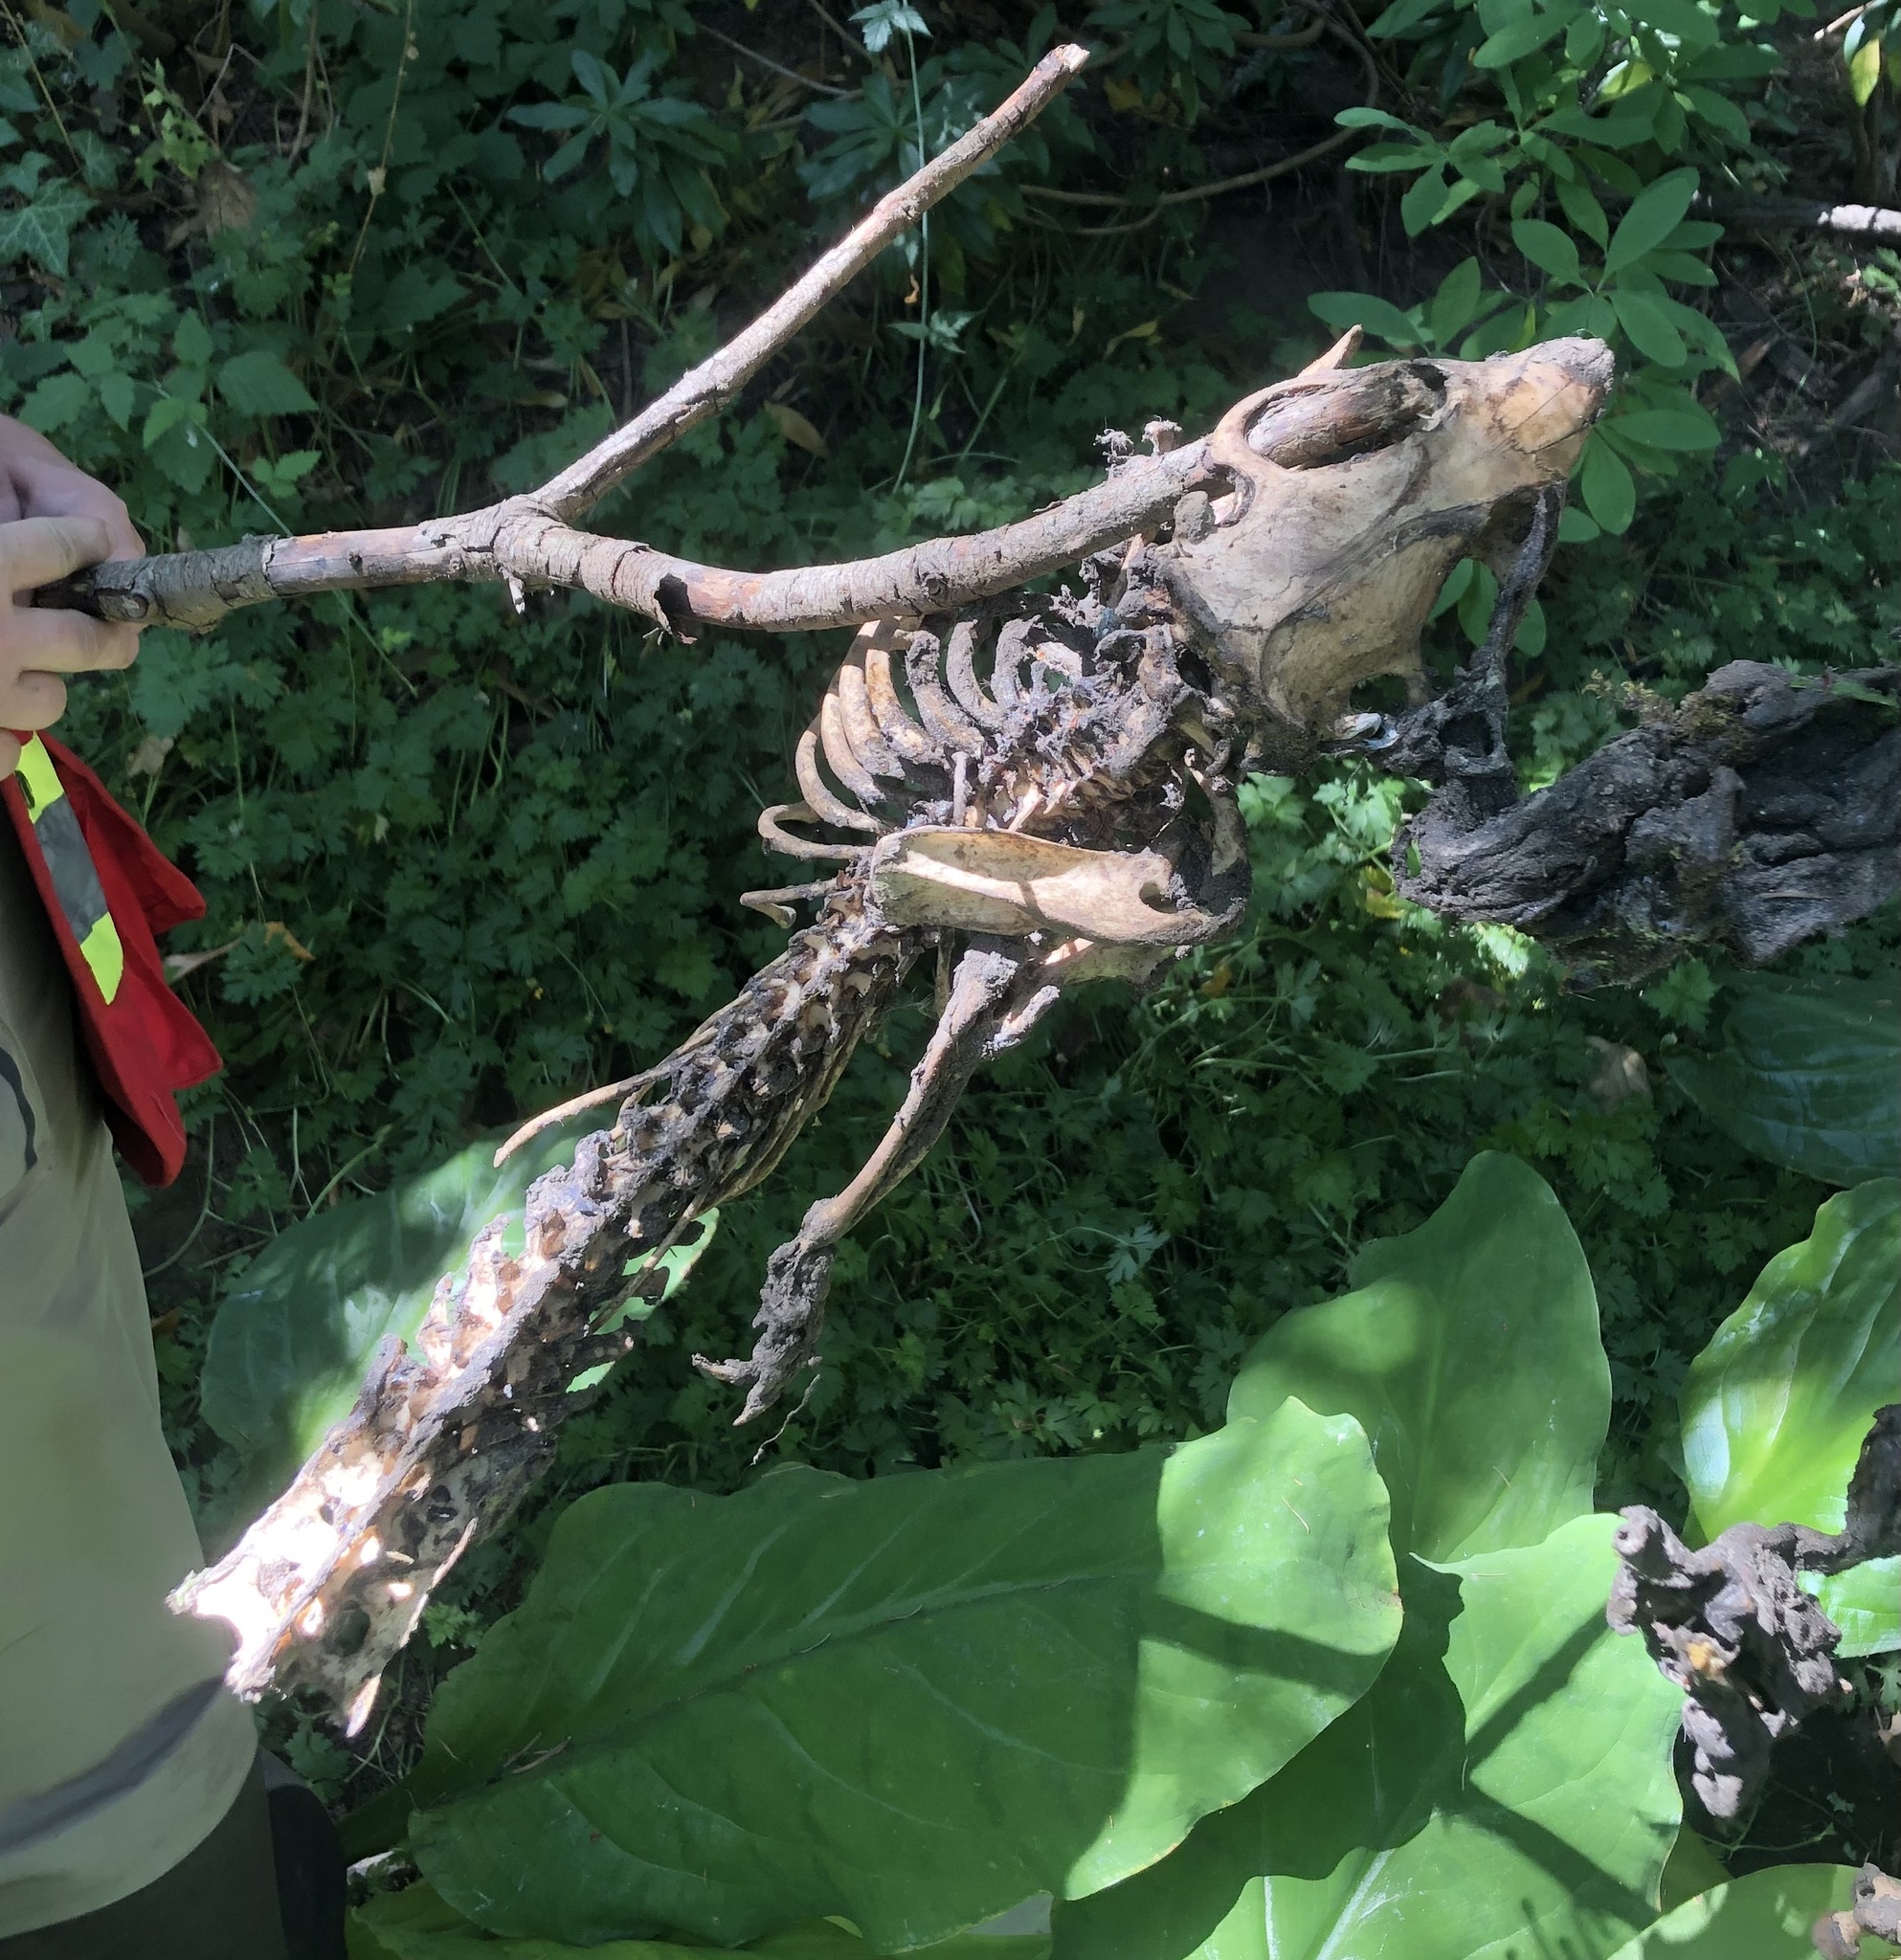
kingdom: Animalia
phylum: Chordata
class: Mammalia
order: Rodentia
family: Castoridae
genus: Castor
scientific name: Castor canadensis
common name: American beaver
